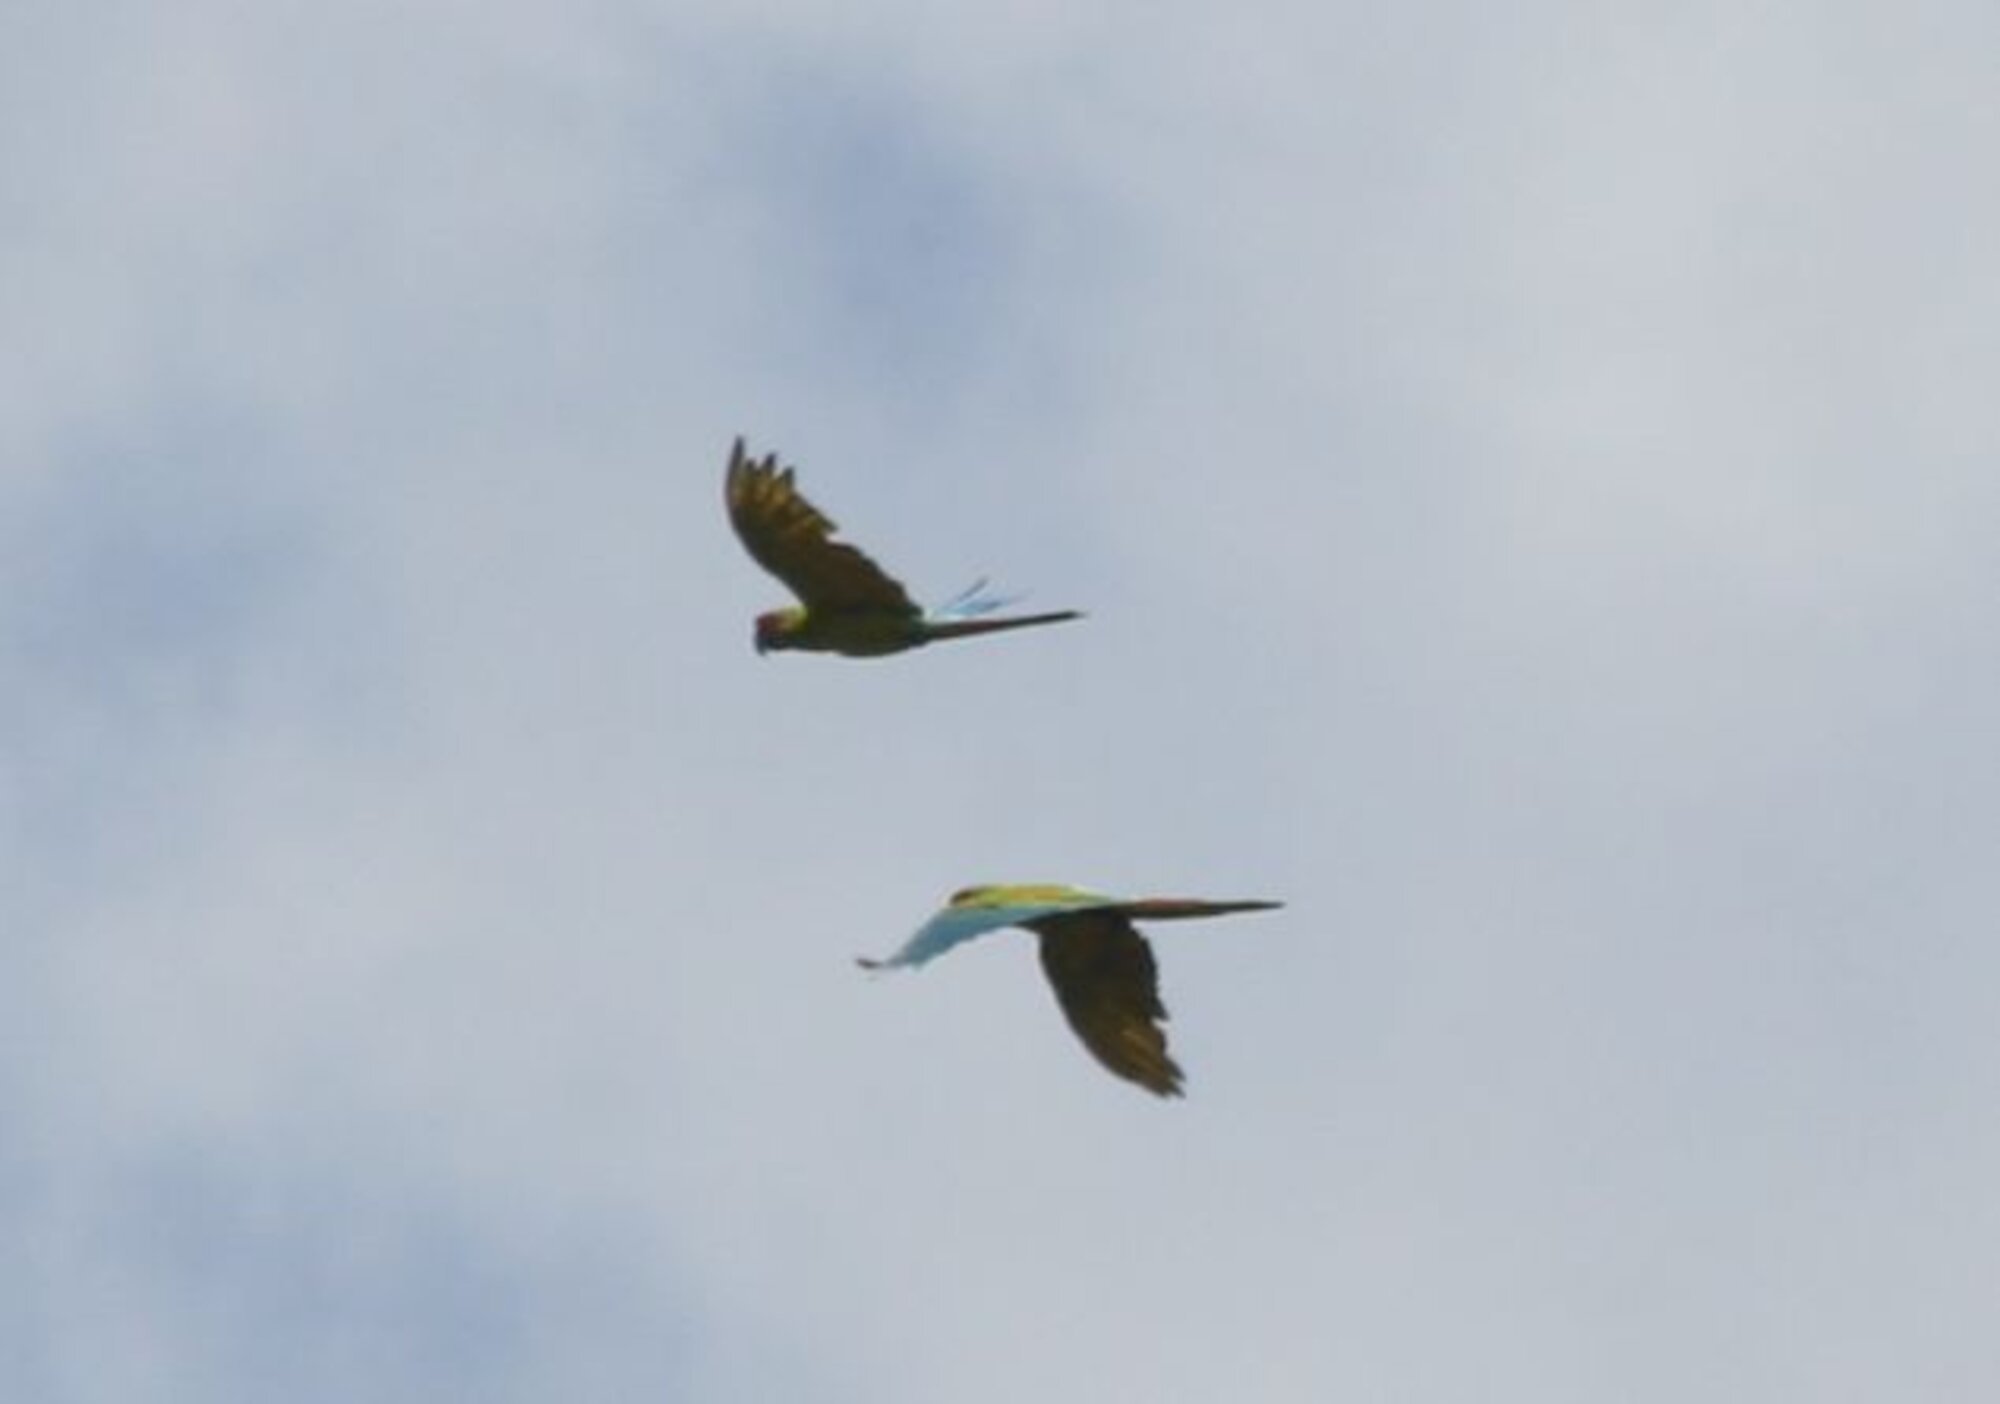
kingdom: Animalia
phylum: Chordata
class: Aves
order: Psittaciformes
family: Psittacidae
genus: Ara
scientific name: Ara ambiguus
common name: Great green macaw
